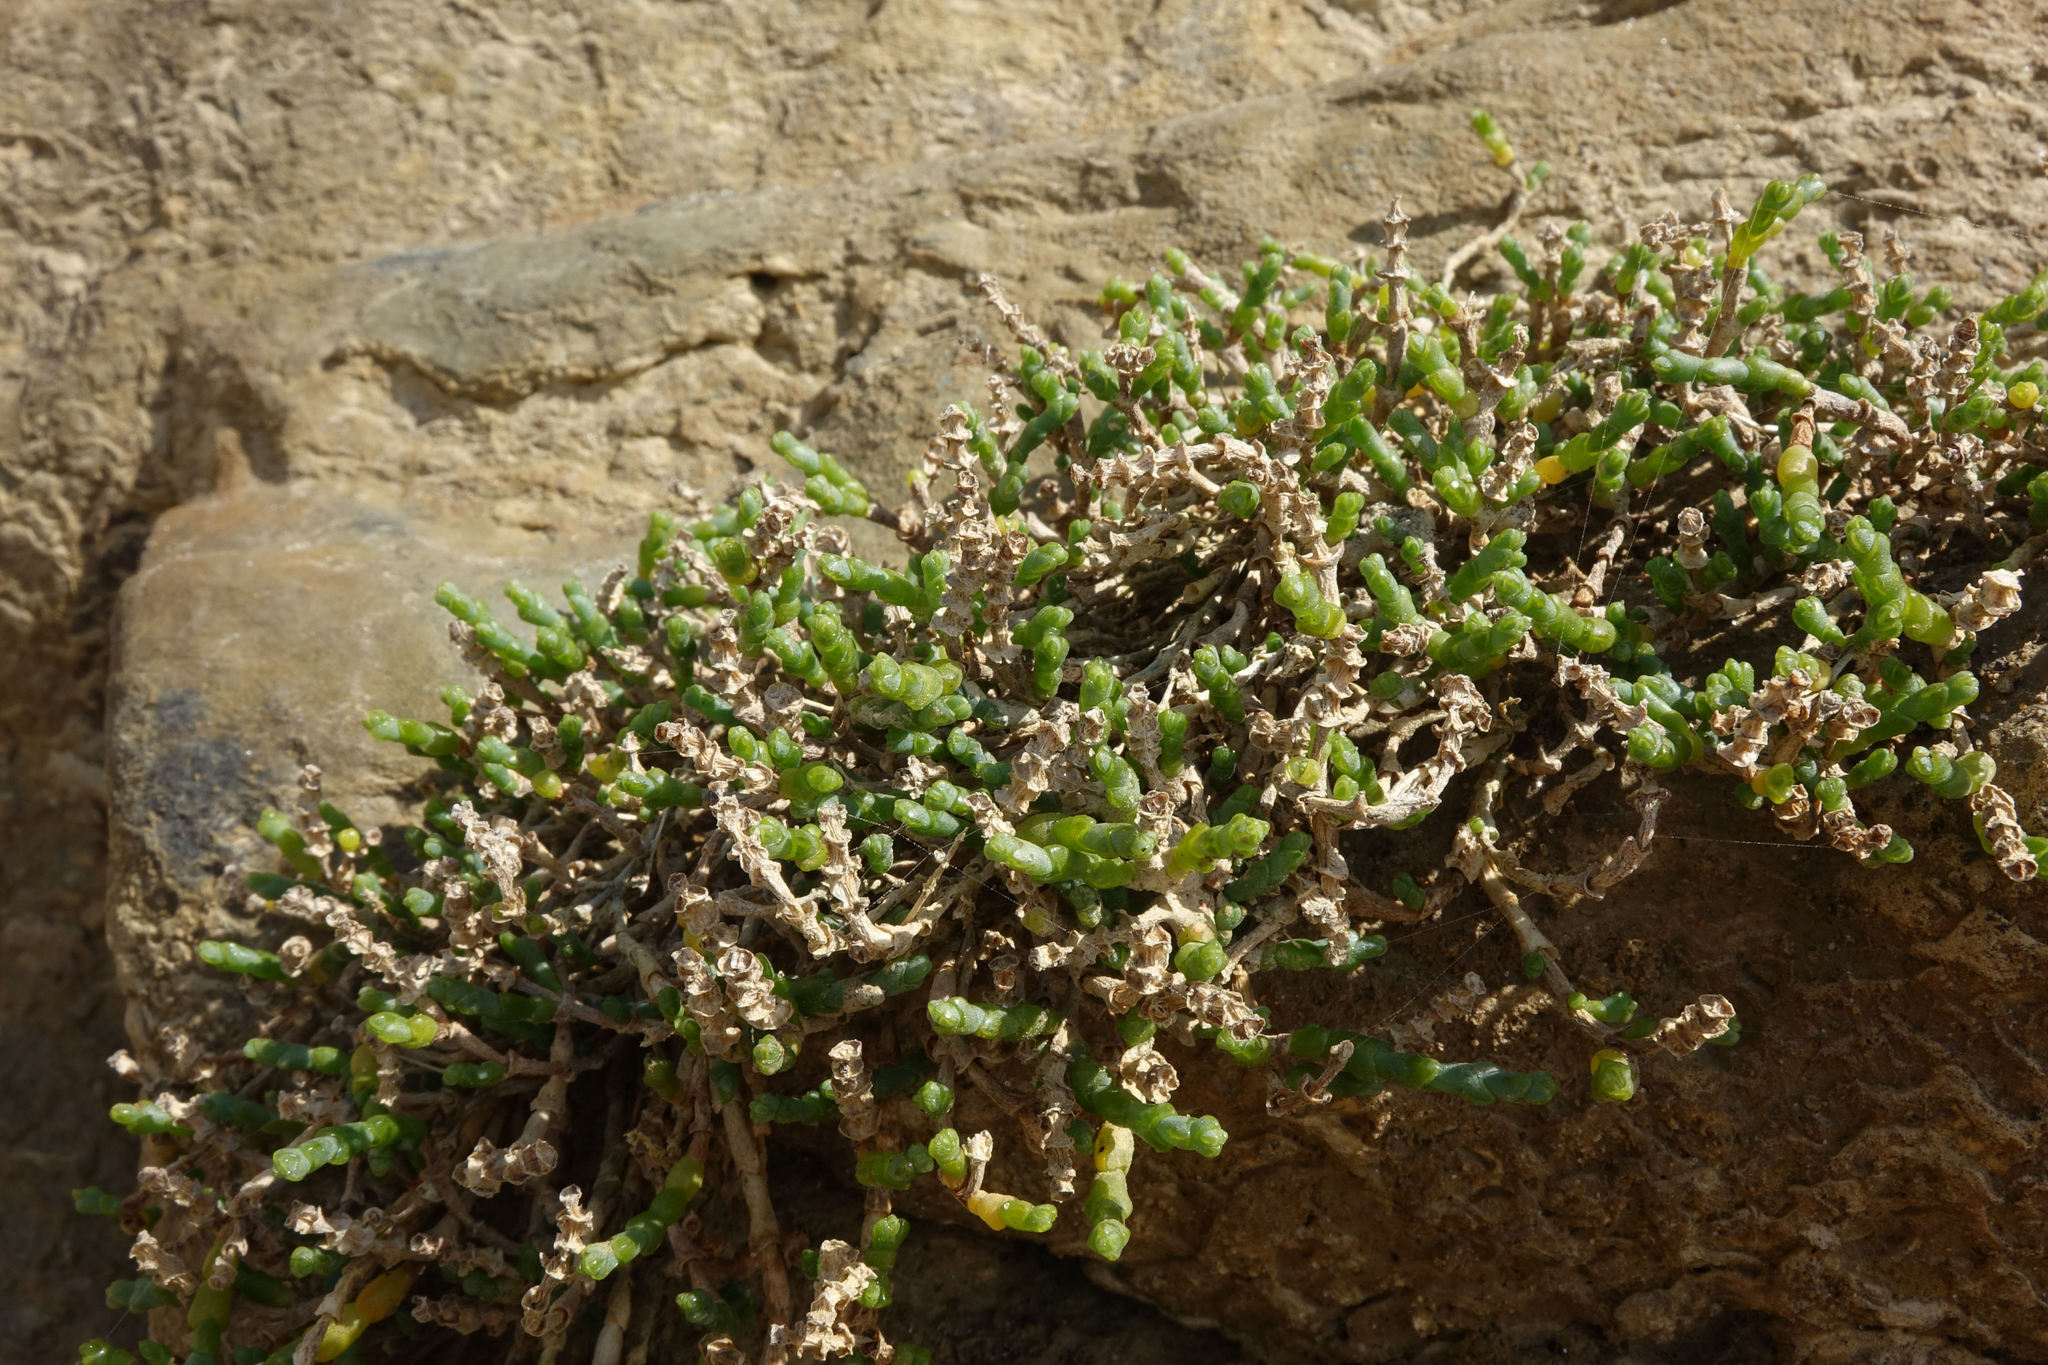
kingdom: Plantae
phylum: Tracheophyta
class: Magnoliopsida
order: Caryophyllales
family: Amaranthaceae
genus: Salicornia
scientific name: Salicornia quinqueflora
